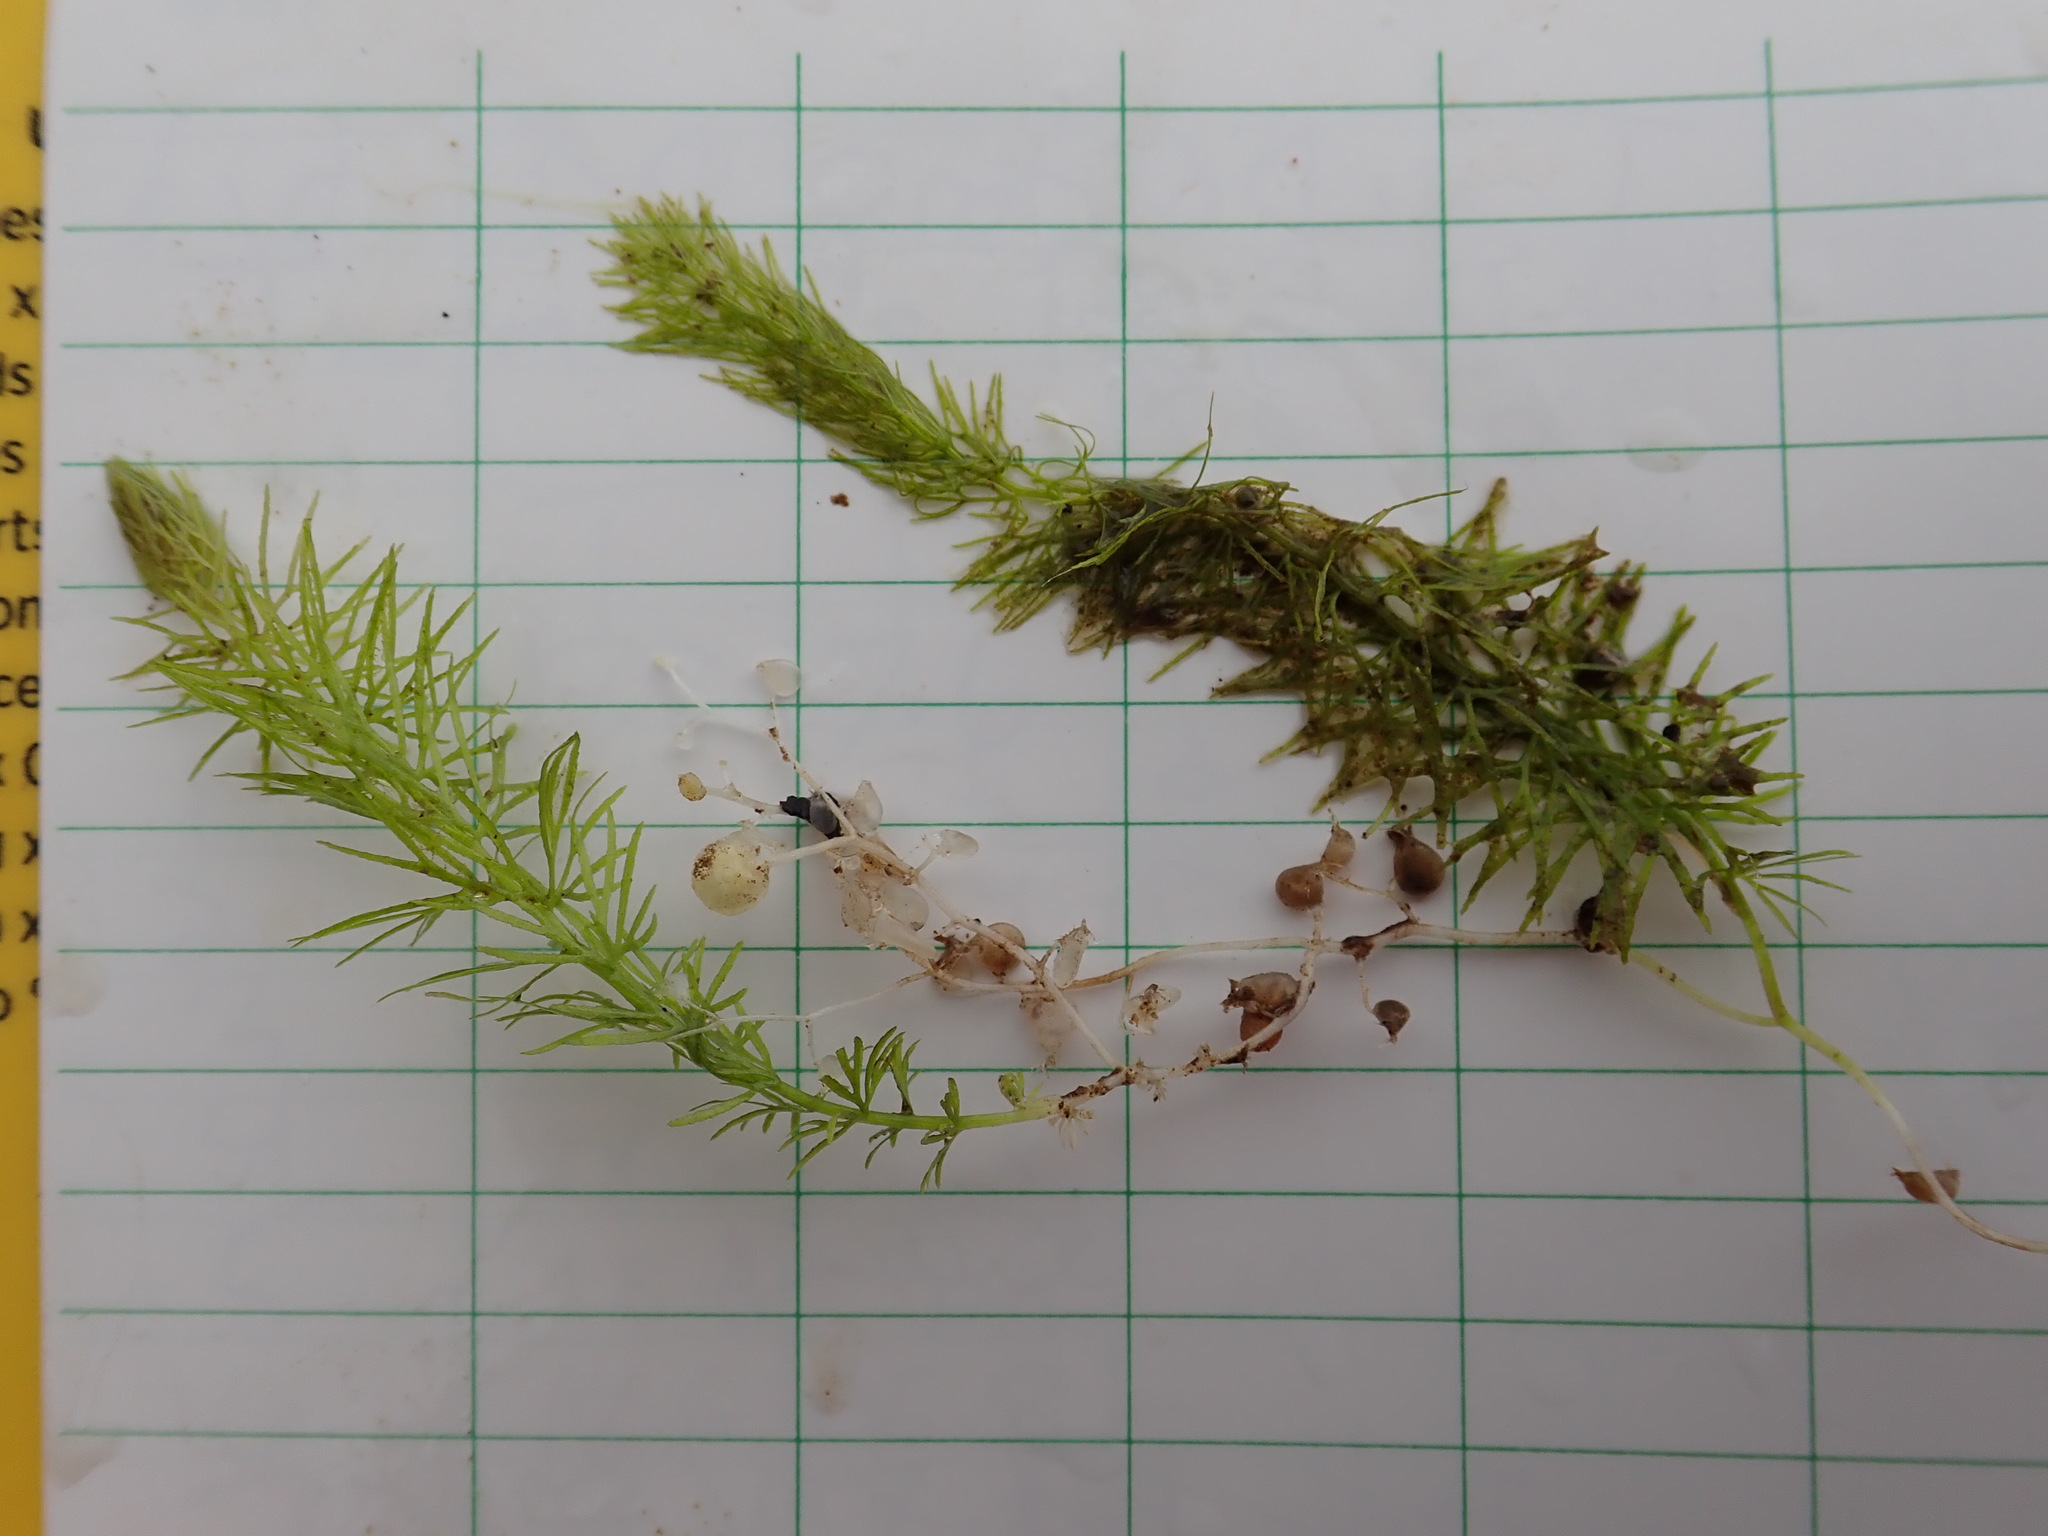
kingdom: Plantae
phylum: Tracheophyta
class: Magnoliopsida
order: Lamiales
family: Lentibulariaceae
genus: Utricularia
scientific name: Utricularia intermedia
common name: Intermediate bladderwort
